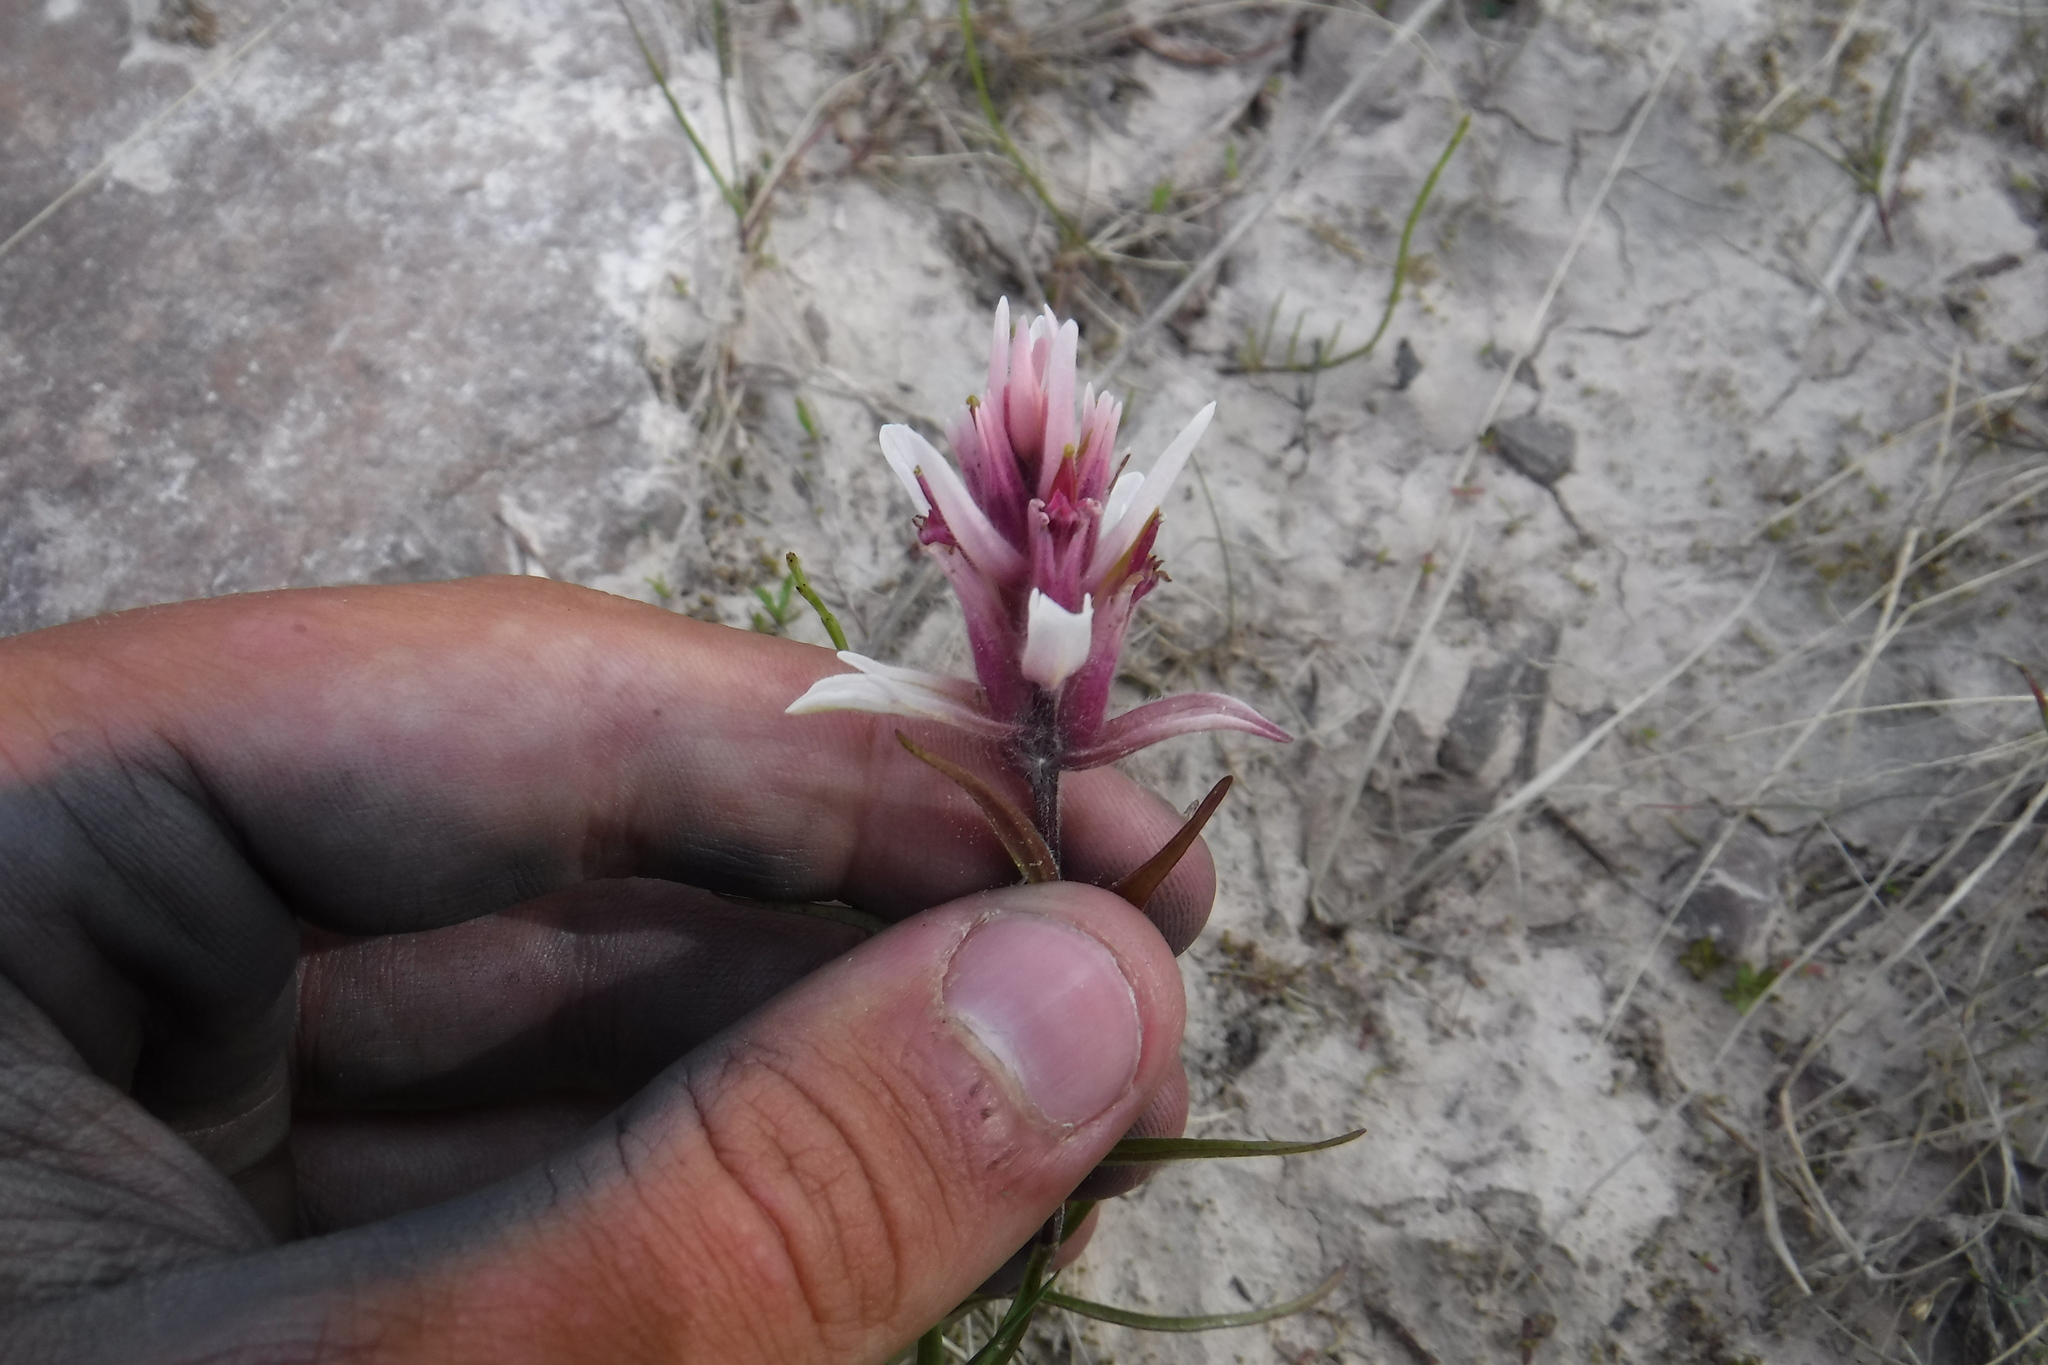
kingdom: Plantae
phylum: Tracheophyta
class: Magnoliopsida
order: Lamiales
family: Orobanchaceae
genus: Castilleja
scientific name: Castilleja elegans
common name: Elegant paintbrush
